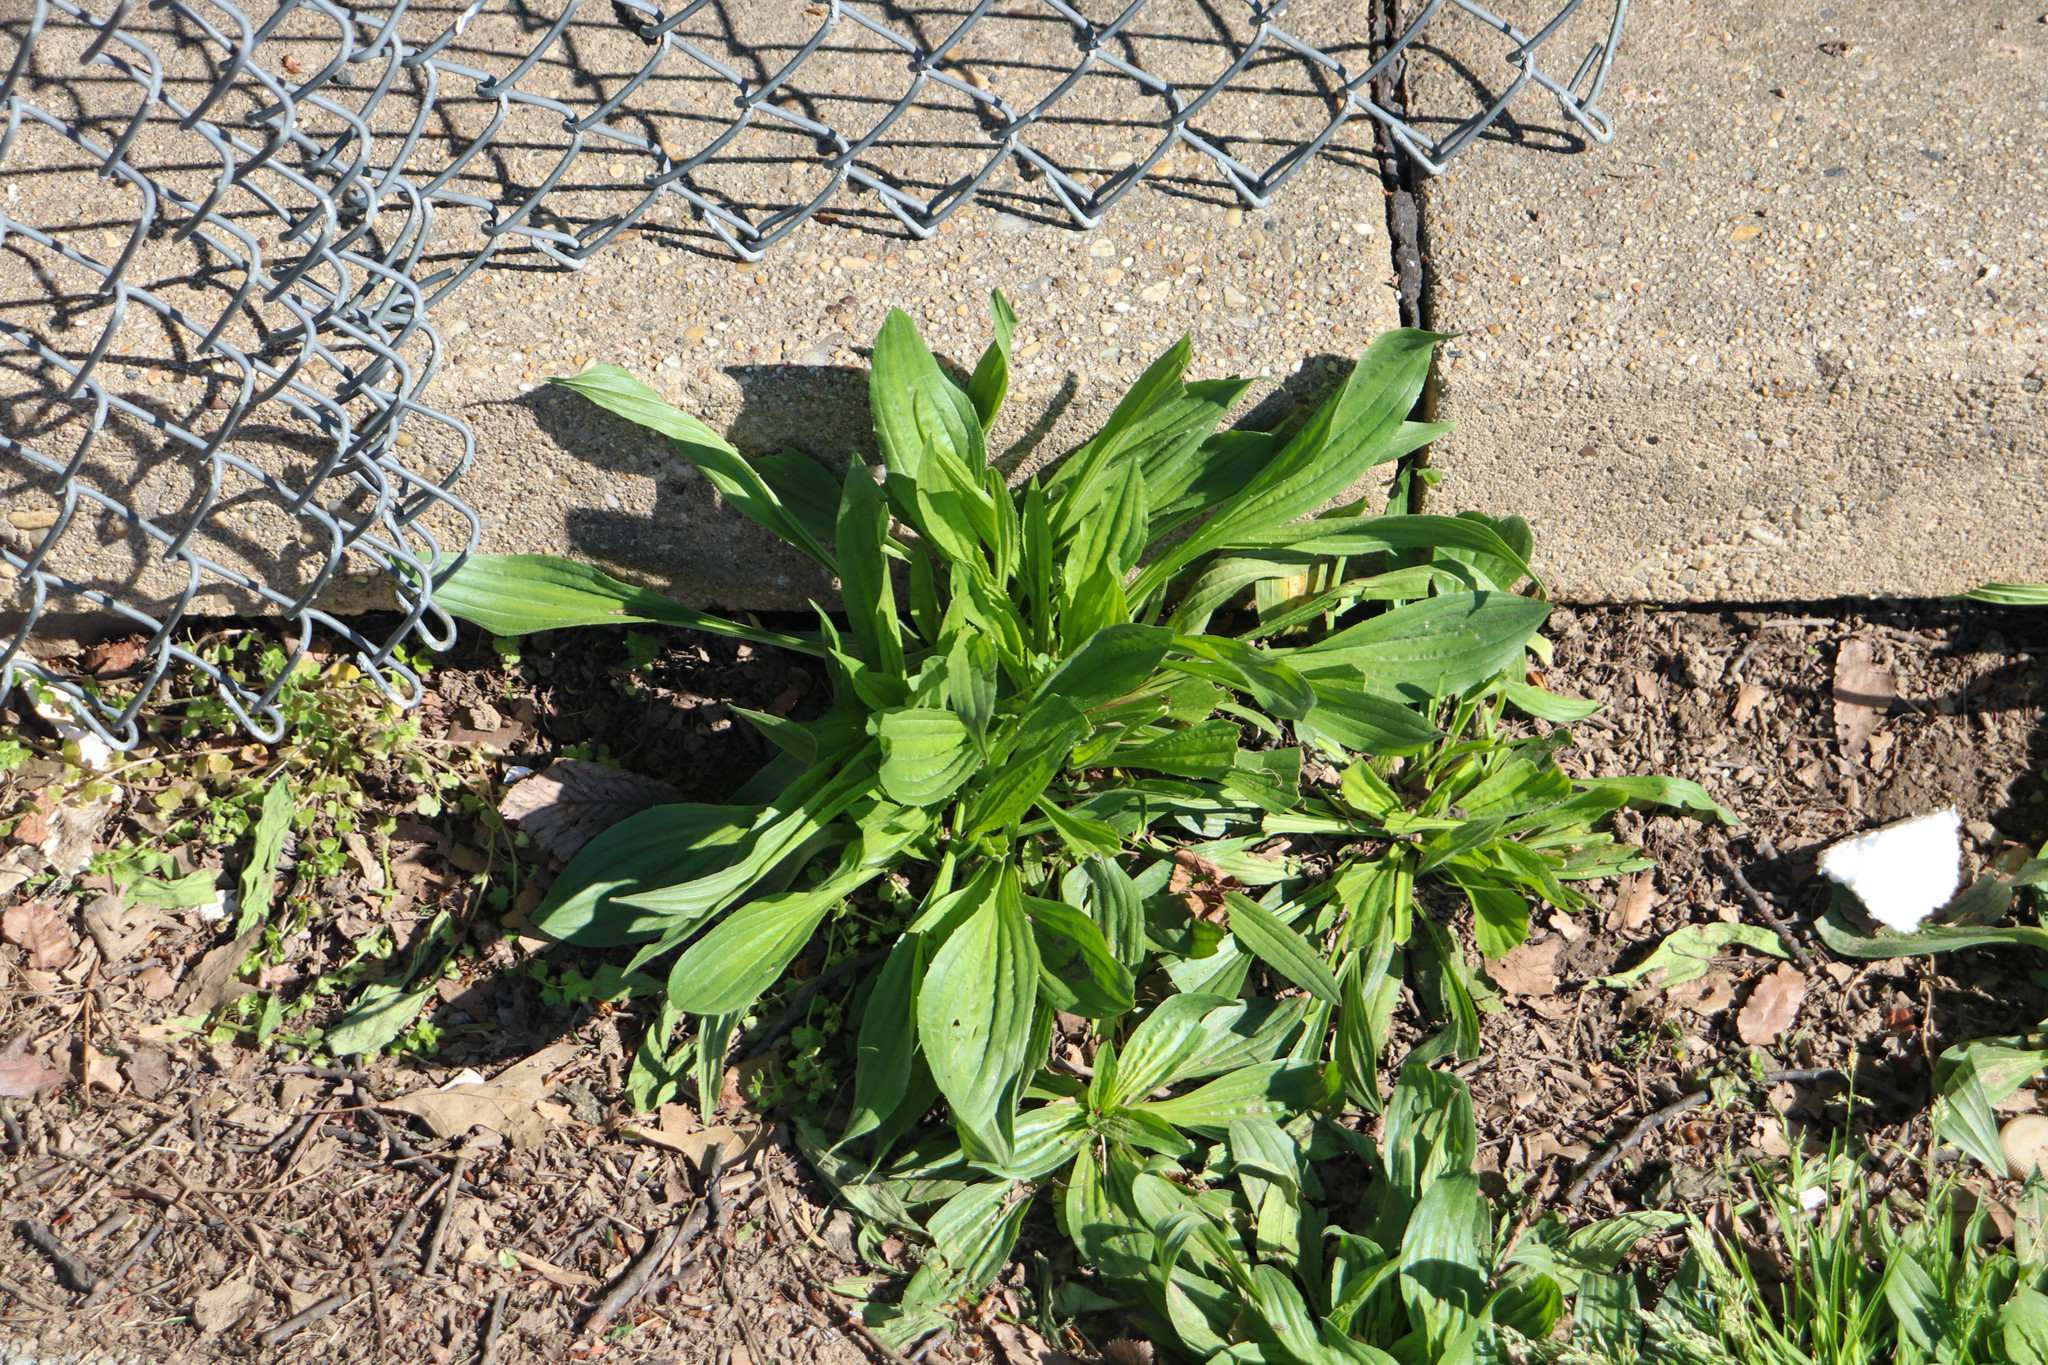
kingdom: Plantae
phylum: Tracheophyta
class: Magnoliopsida
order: Lamiales
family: Plantaginaceae
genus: Plantago
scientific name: Plantago lanceolata
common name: Ribwort plantain
